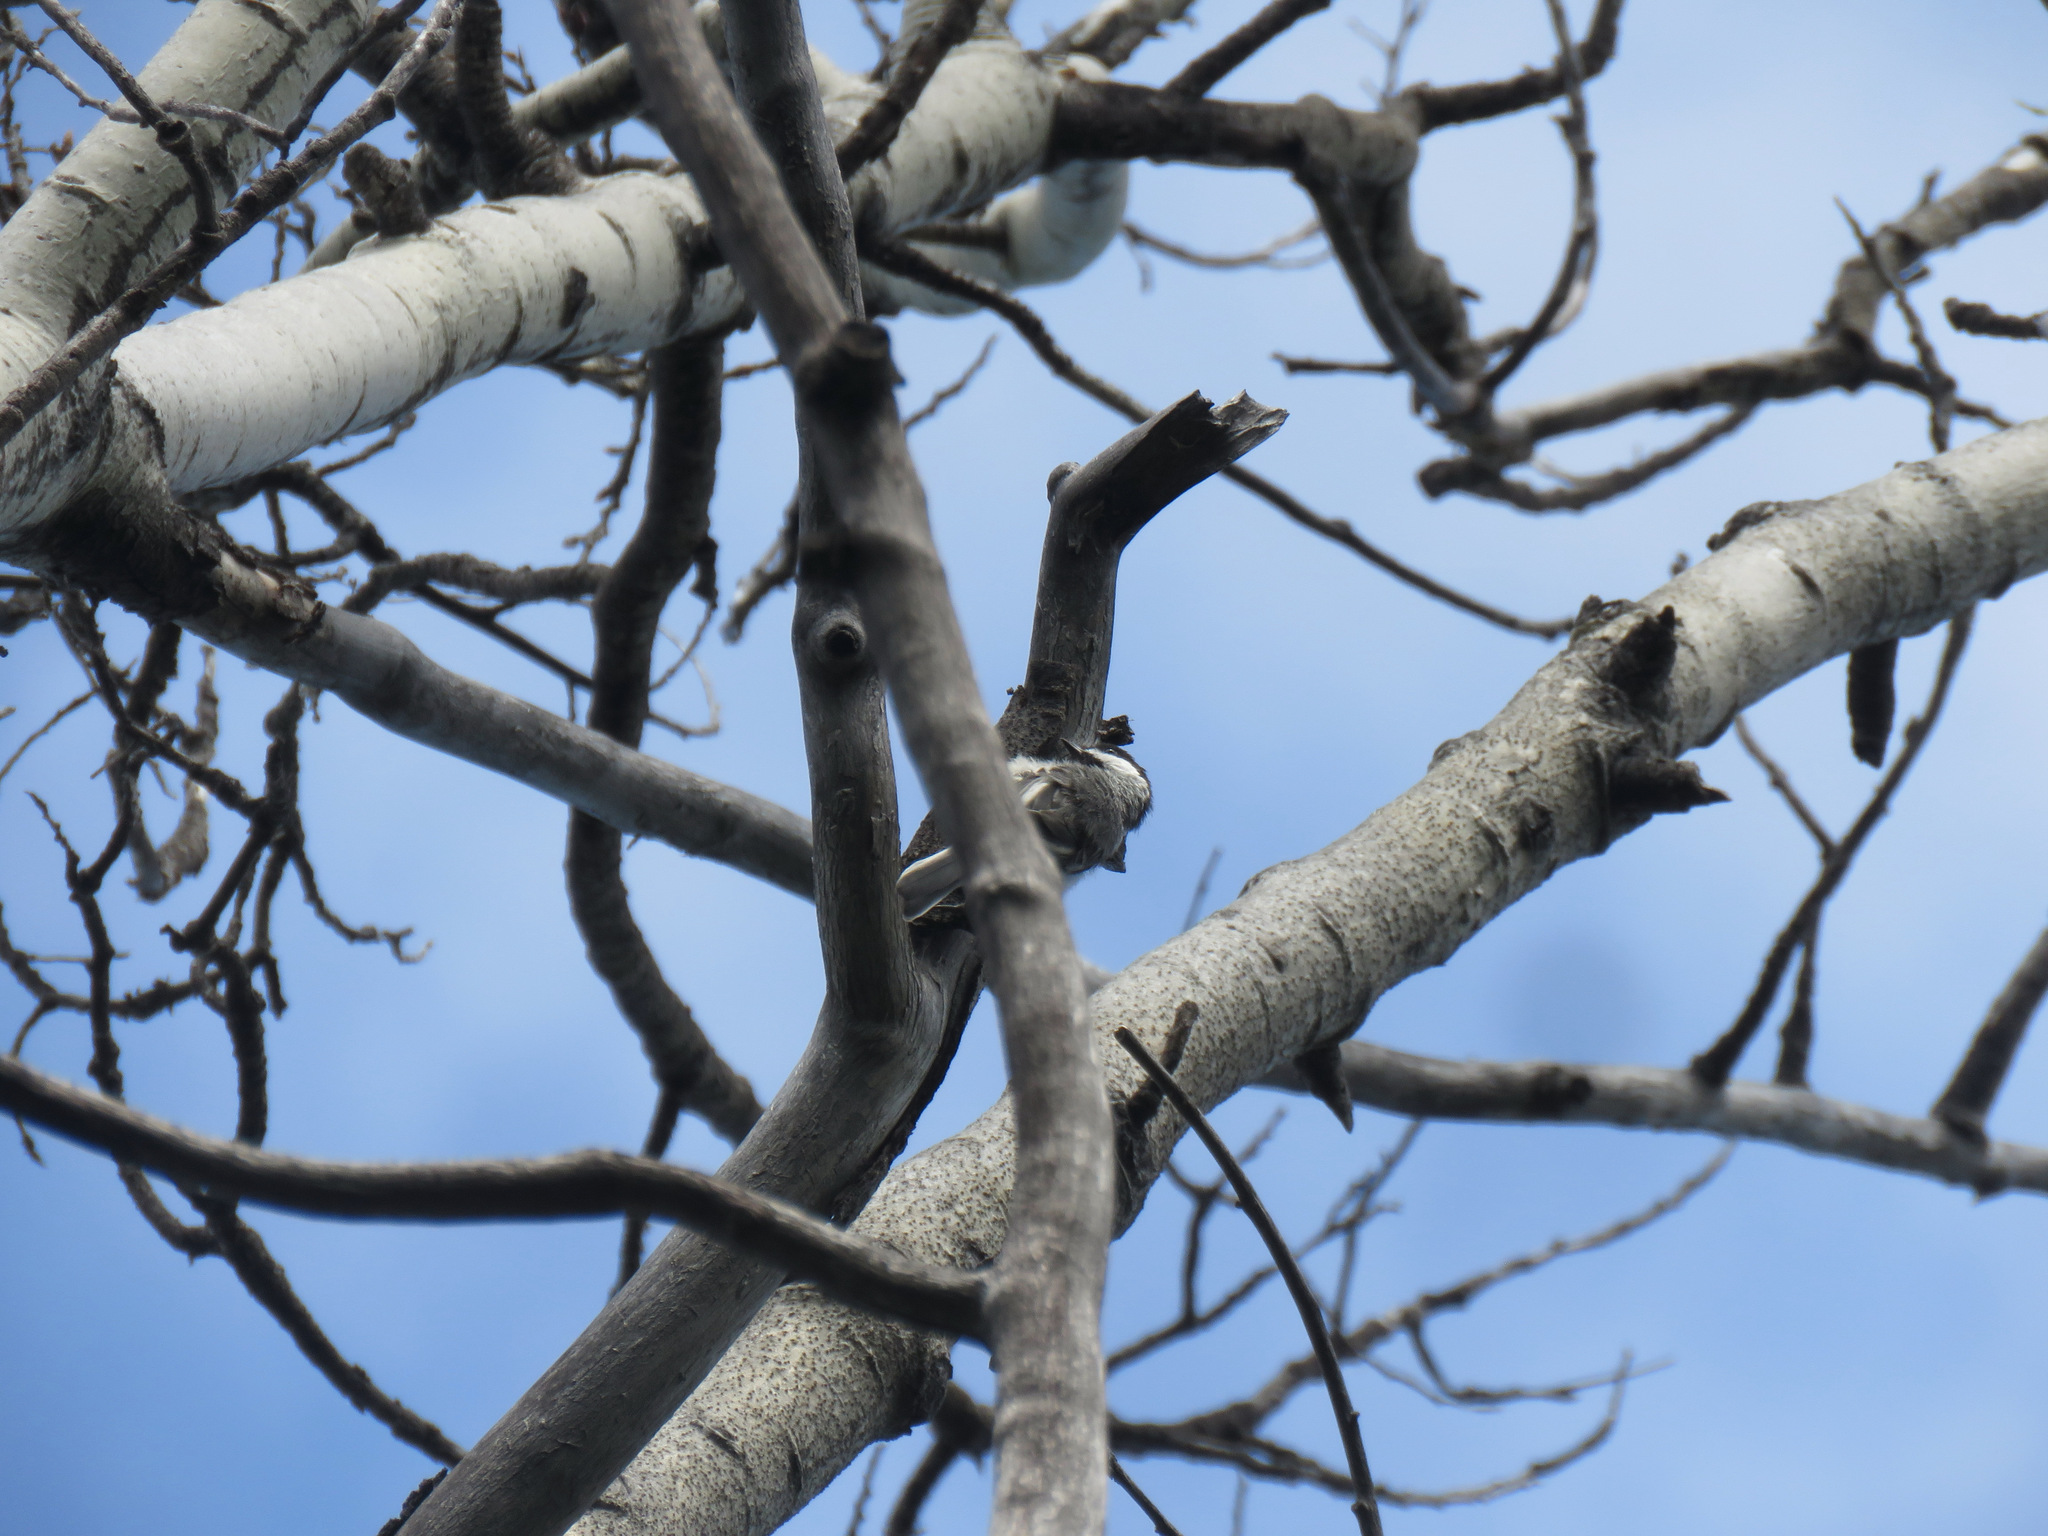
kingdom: Animalia
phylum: Chordata
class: Aves
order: Passeriformes
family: Paridae
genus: Poecile
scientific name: Poecile atricapillus
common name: Black-capped chickadee
